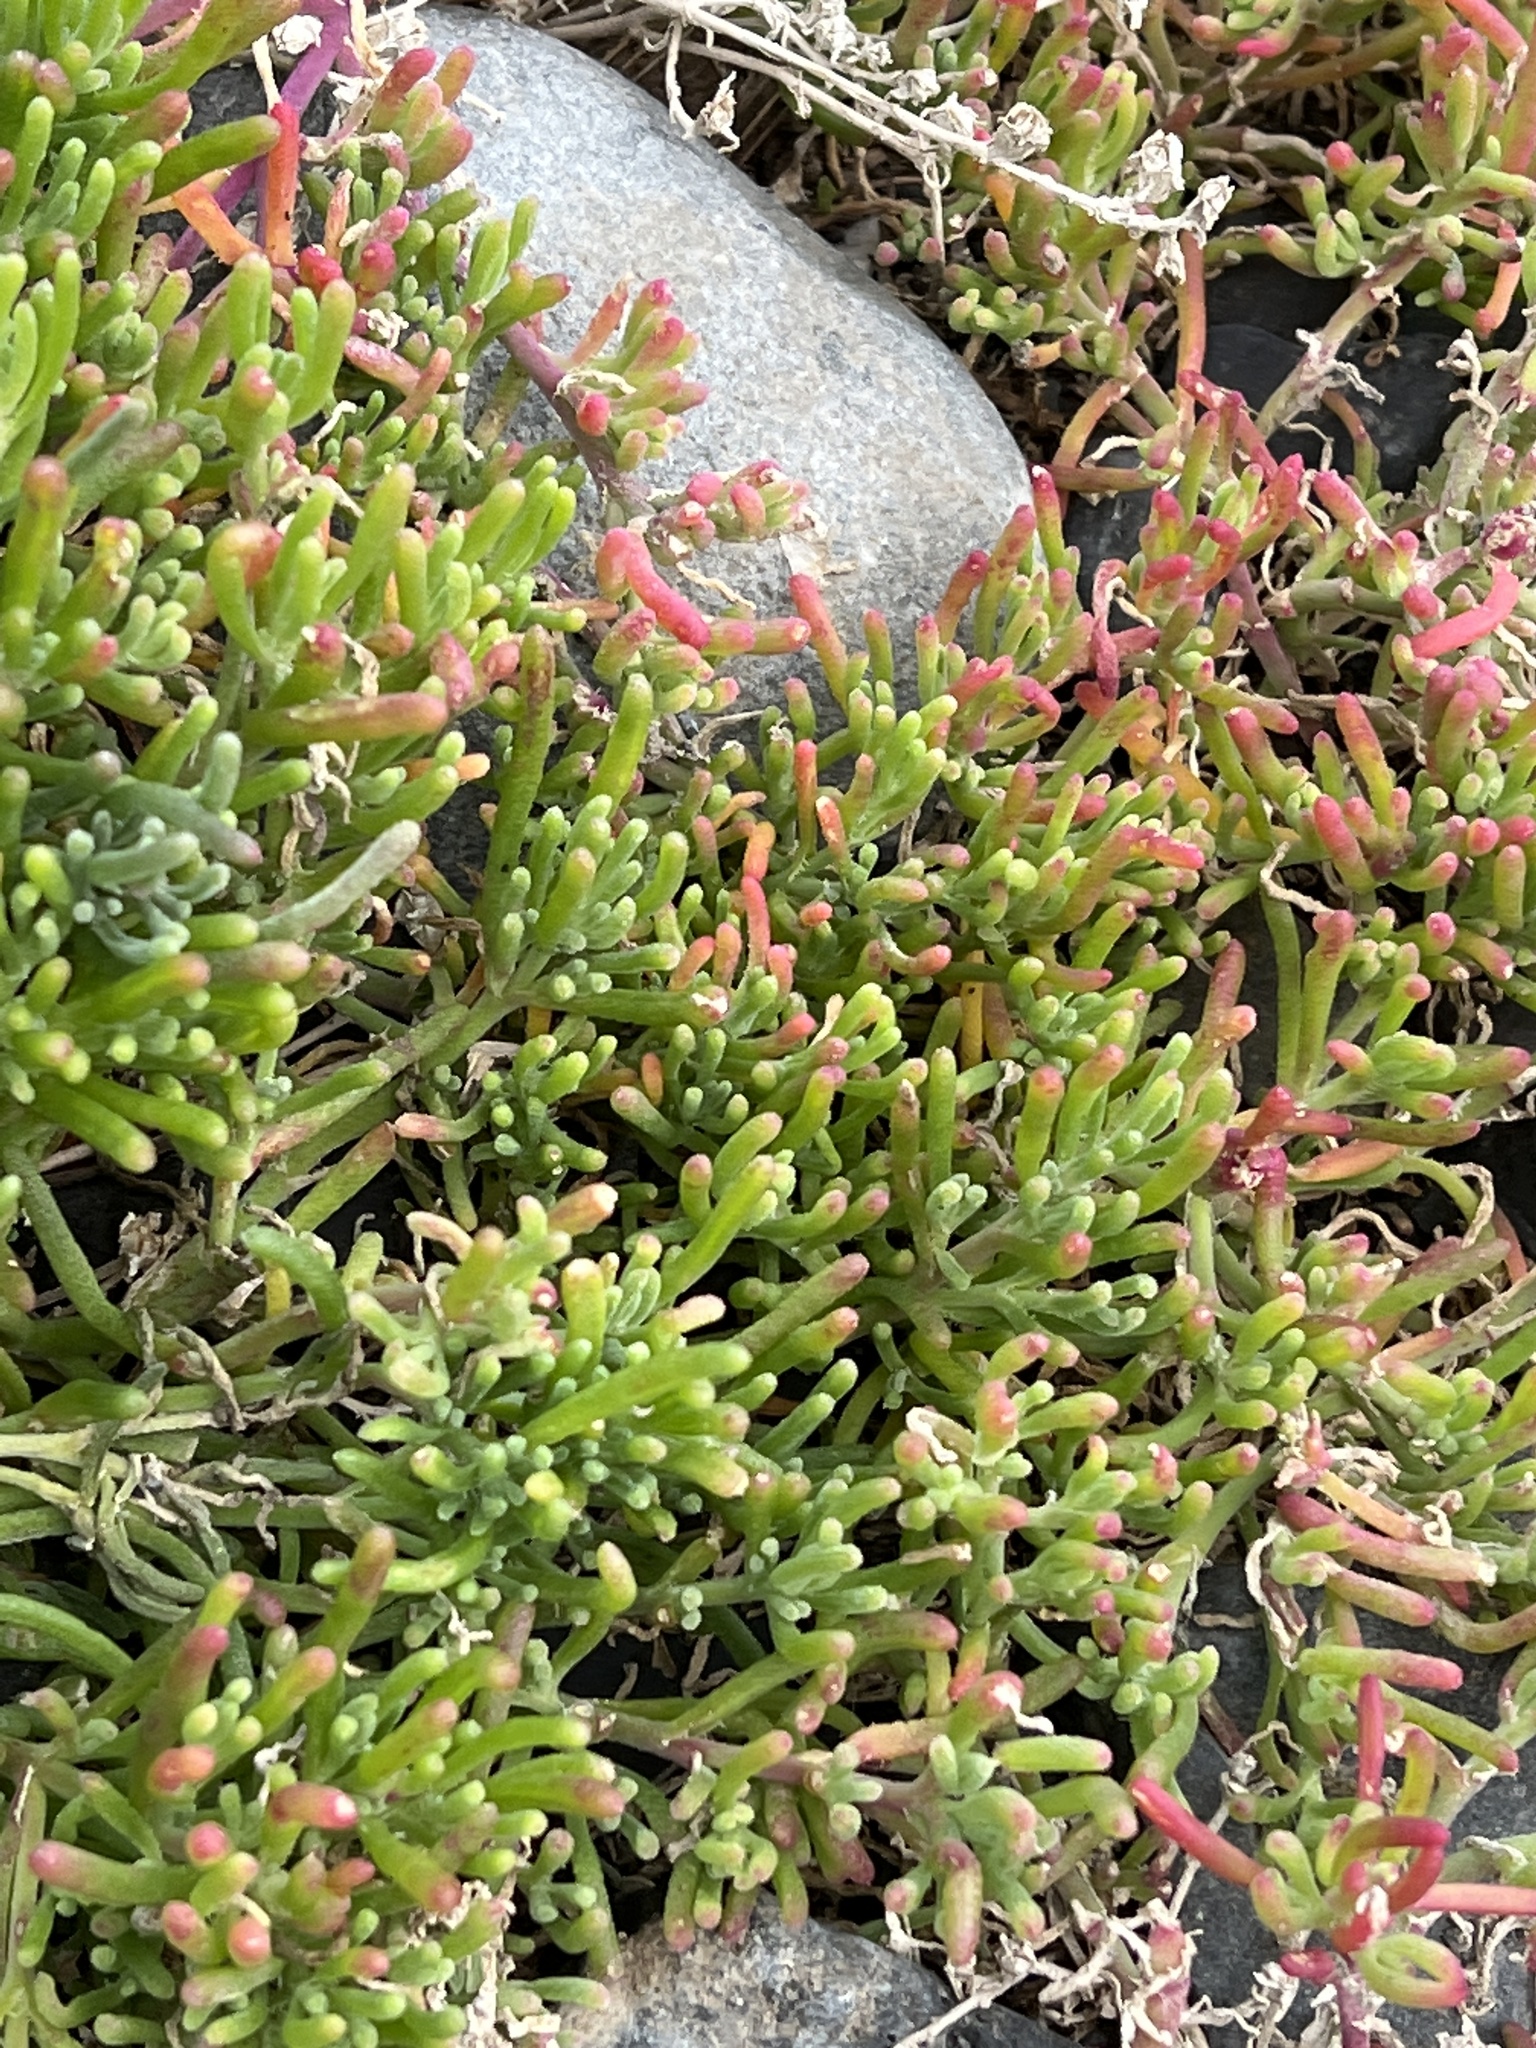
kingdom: Plantae
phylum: Tracheophyta
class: Magnoliopsida
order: Caryophyllales
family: Aizoaceae
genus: Mesembryanthemum
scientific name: Mesembryanthemum nodiflorum
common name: Slenderleaf iceplant
